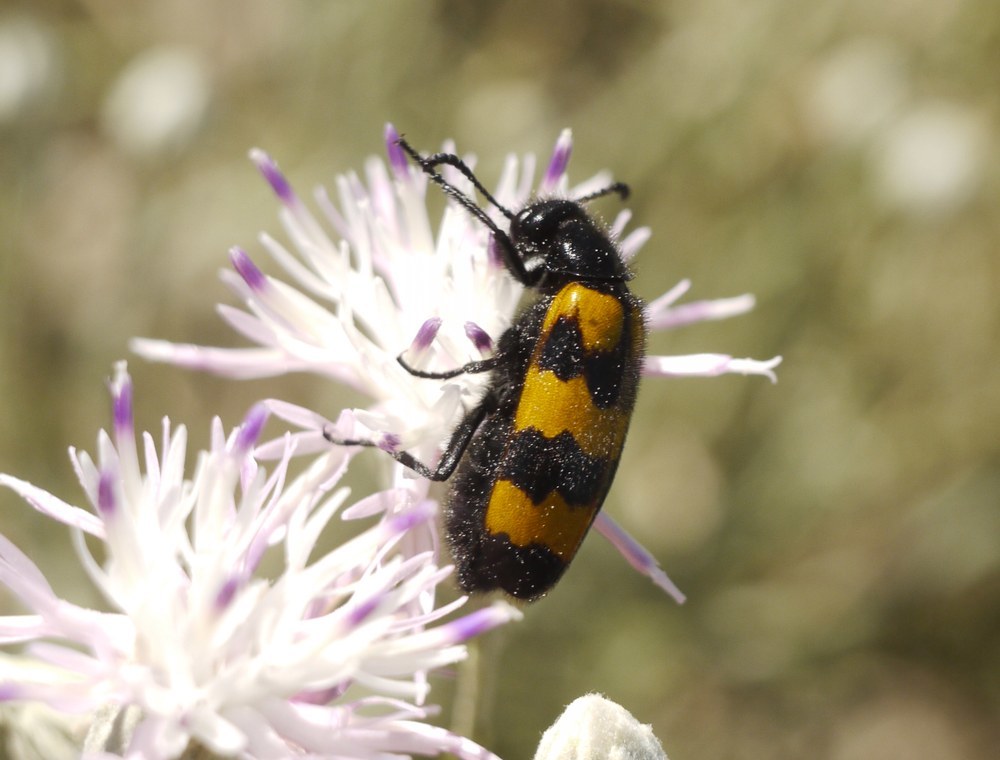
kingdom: Animalia
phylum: Arthropoda
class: Insecta
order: Coleoptera
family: Meloidae
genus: Mylabris
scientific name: Mylabris variabilis
